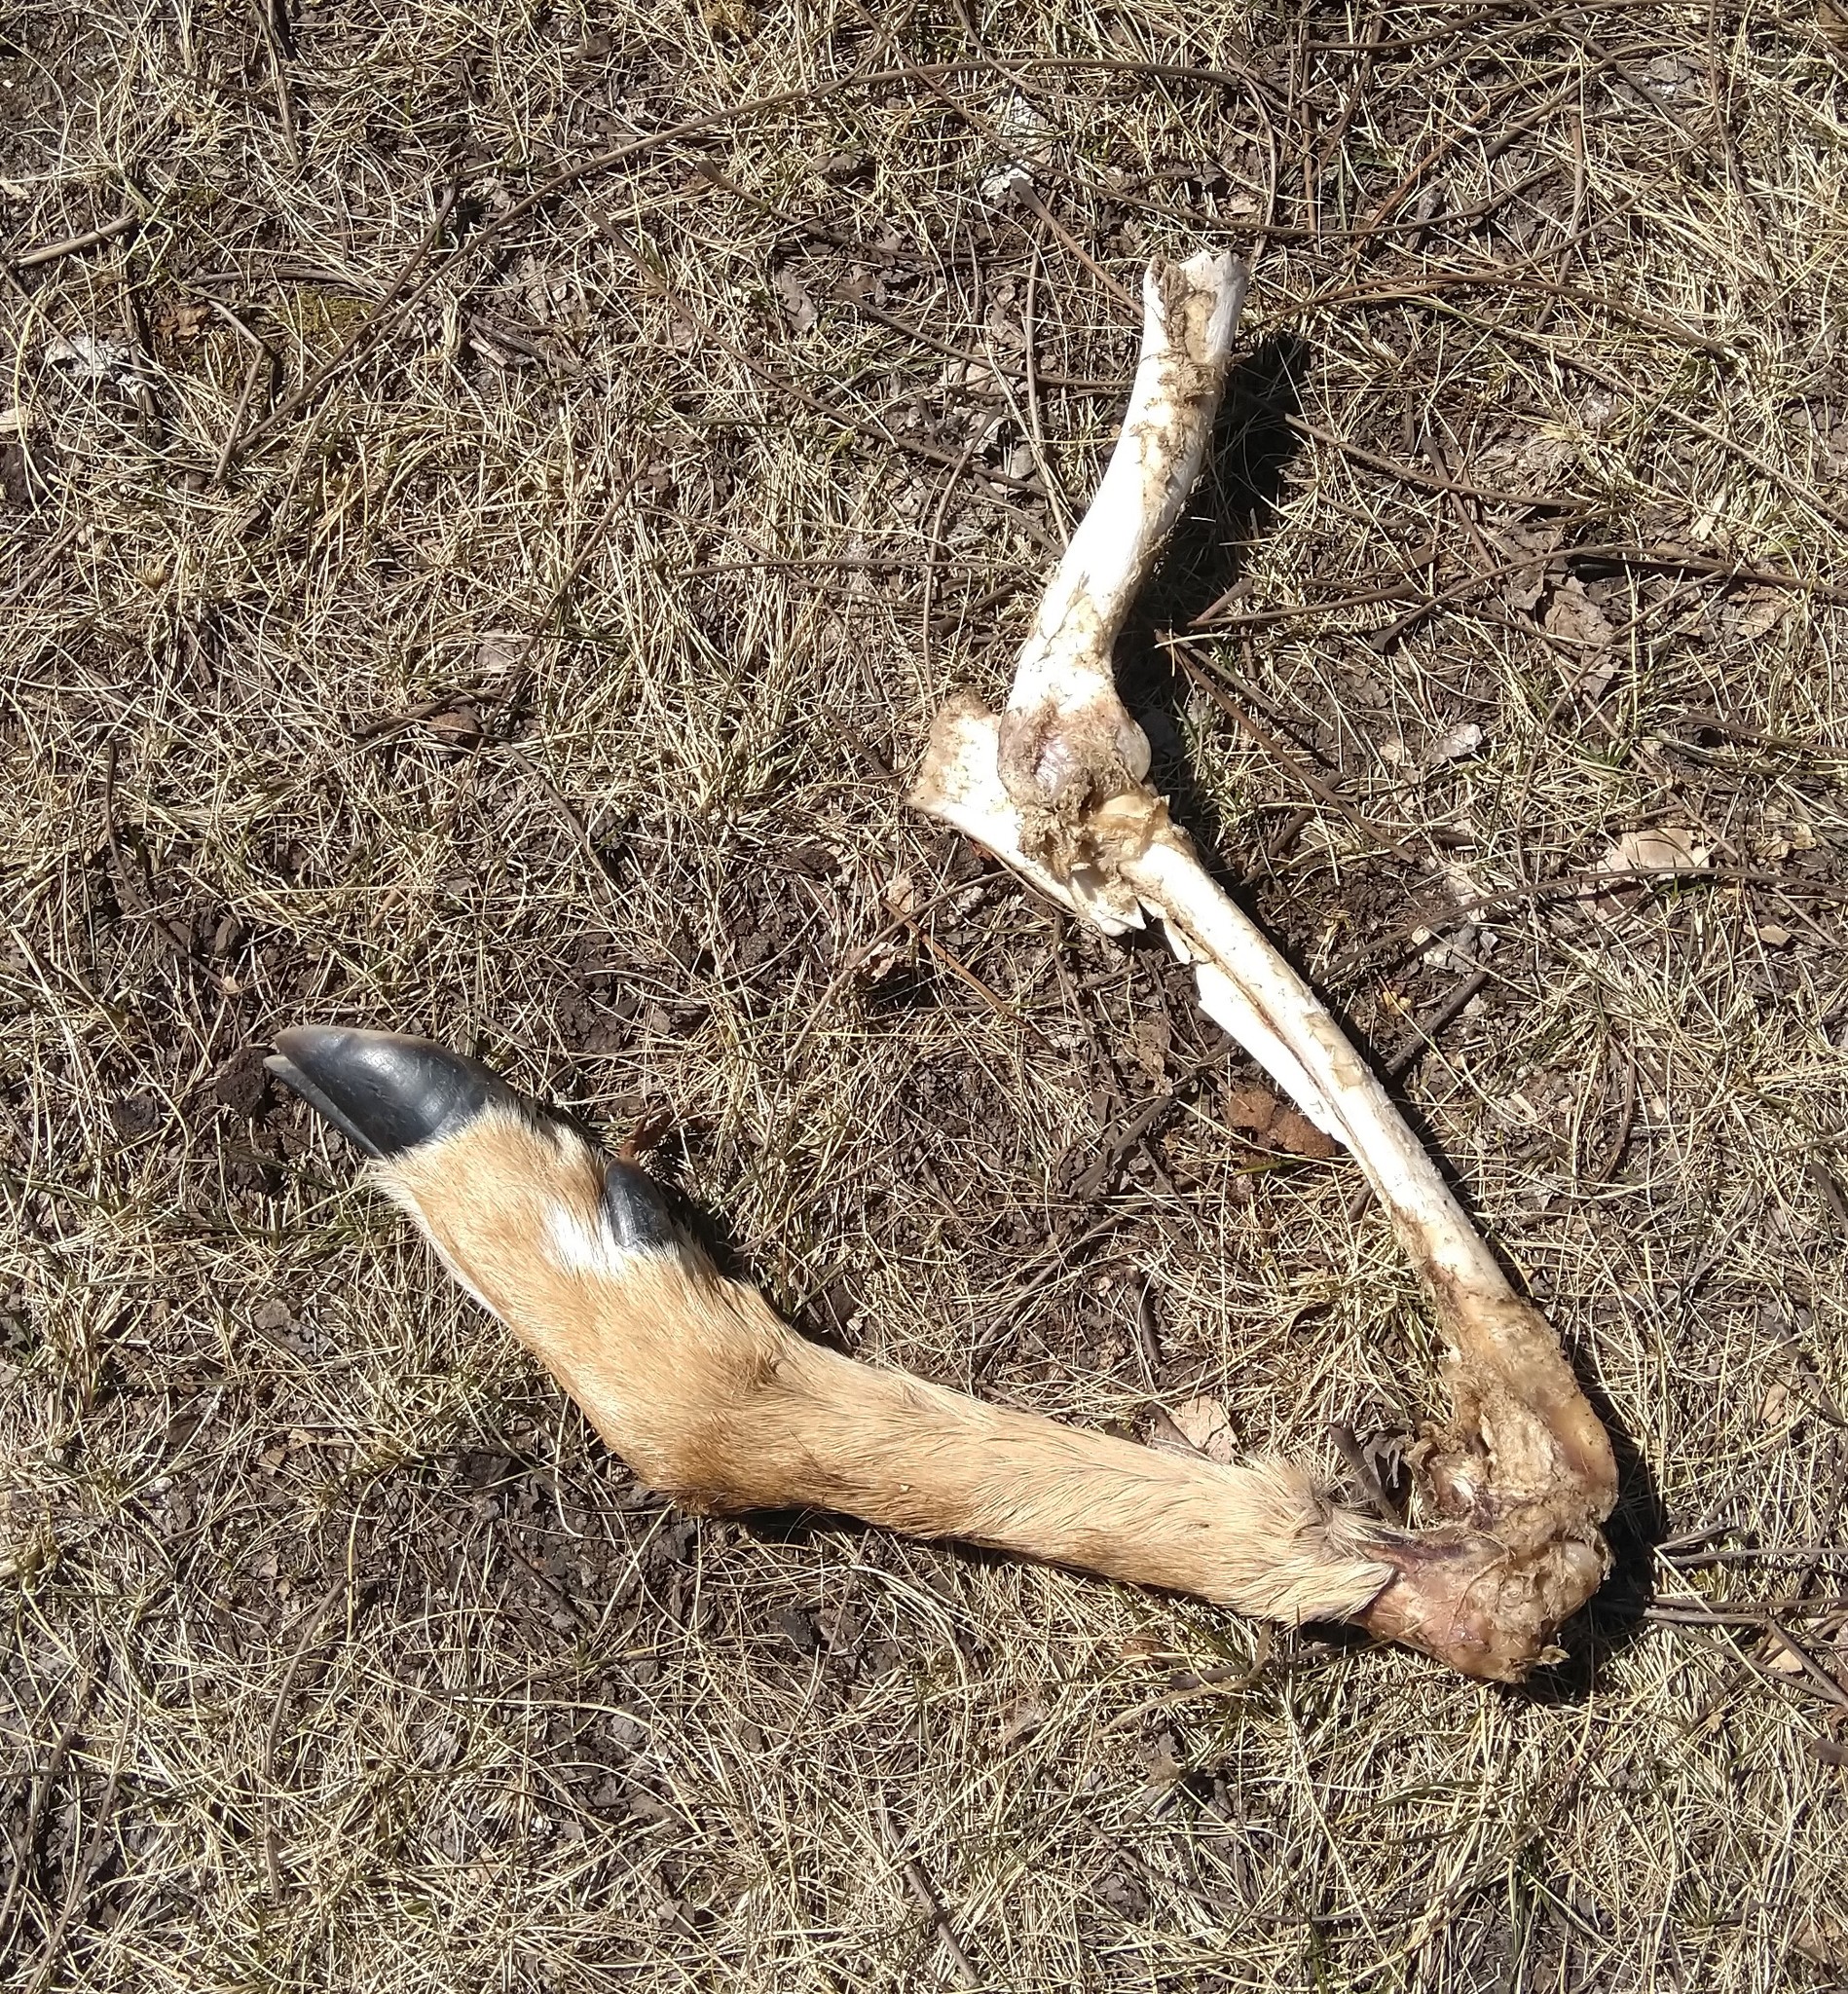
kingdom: Animalia
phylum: Chordata
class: Mammalia
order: Artiodactyla
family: Cervidae
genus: Odocoileus
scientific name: Odocoileus virginianus
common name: White-tailed deer
